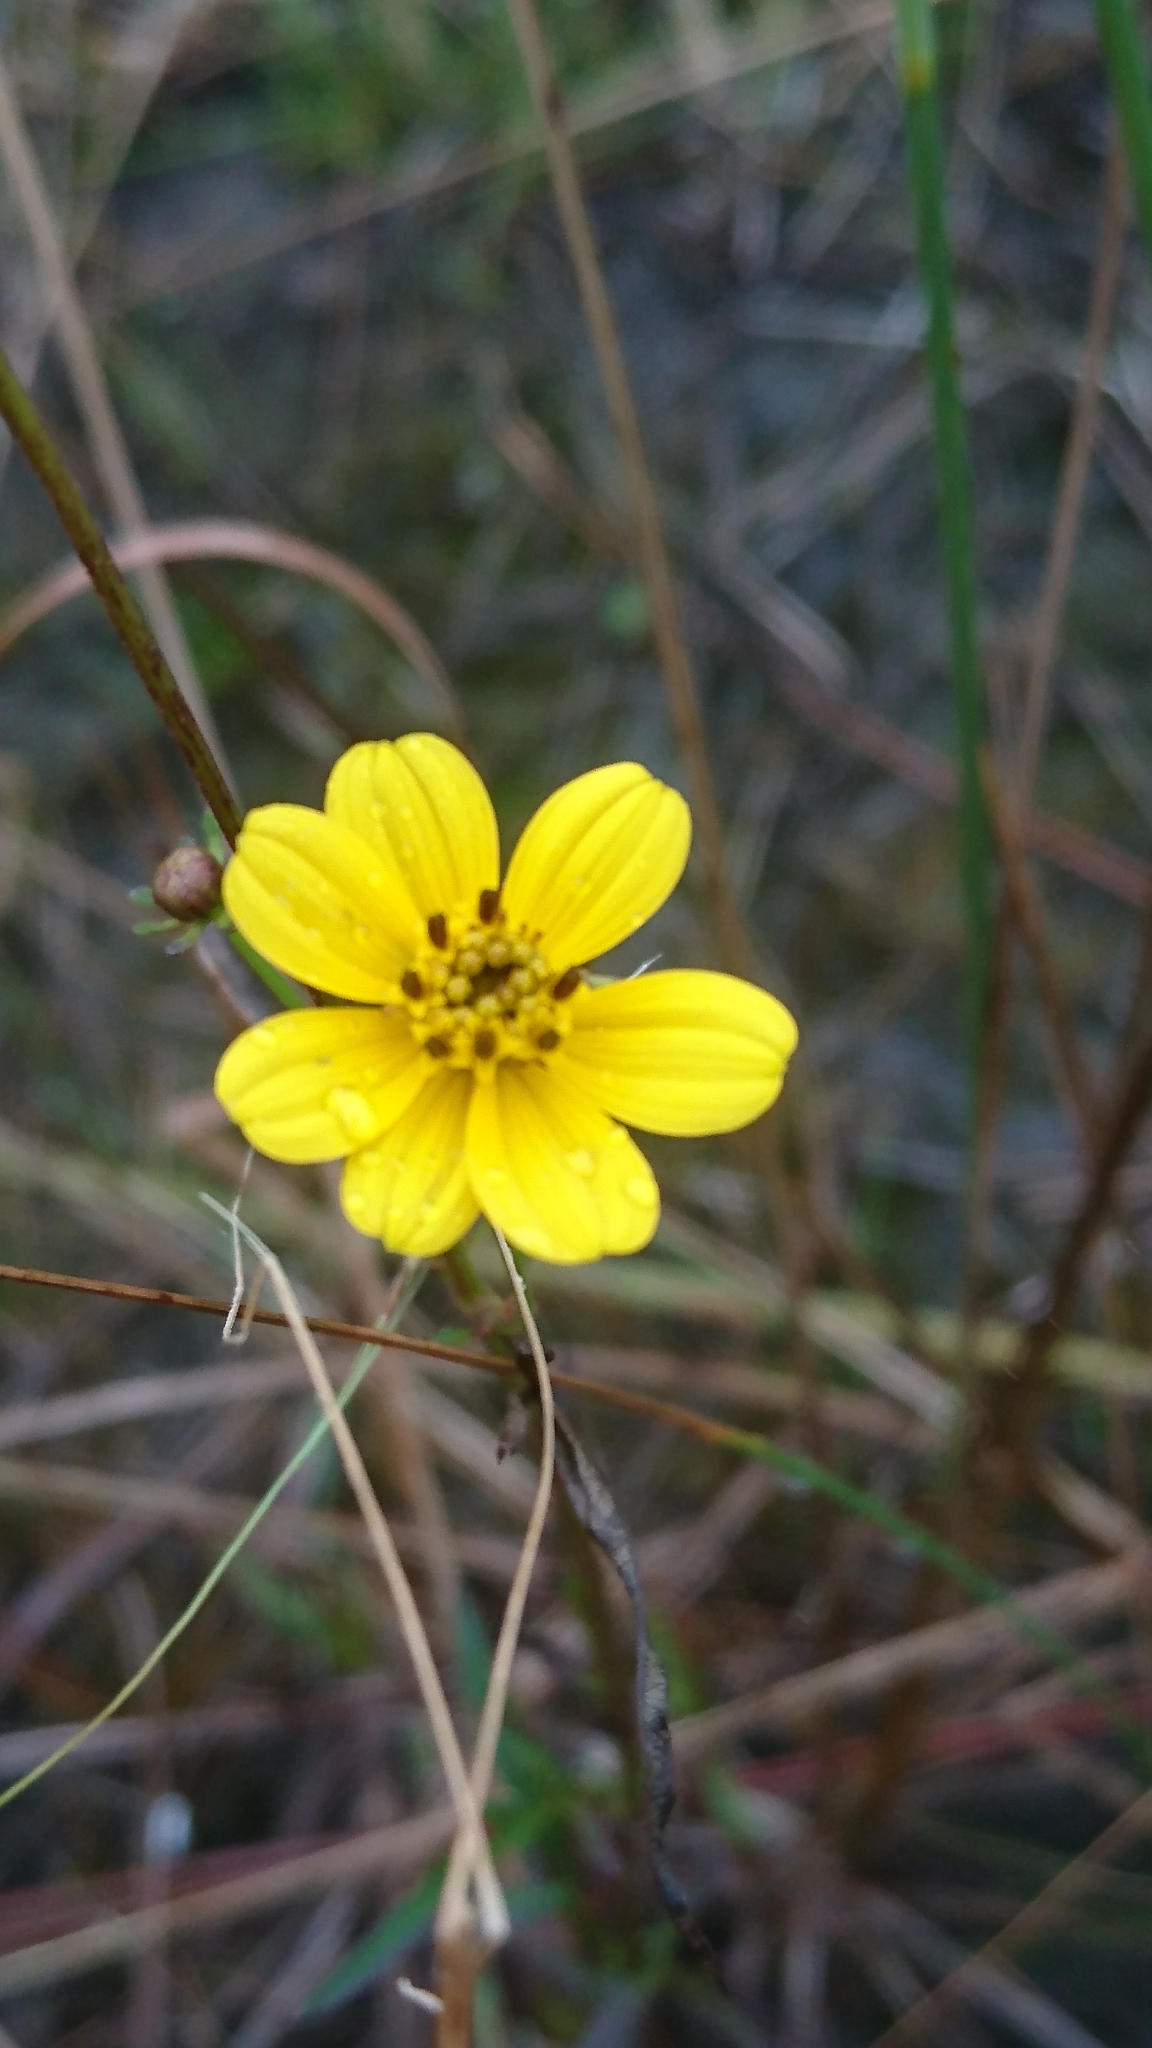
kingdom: Plantae
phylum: Tracheophyta
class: Magnoliopsida
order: Asterales
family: Asteraceae
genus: Bidens
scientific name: Bidens mitis
